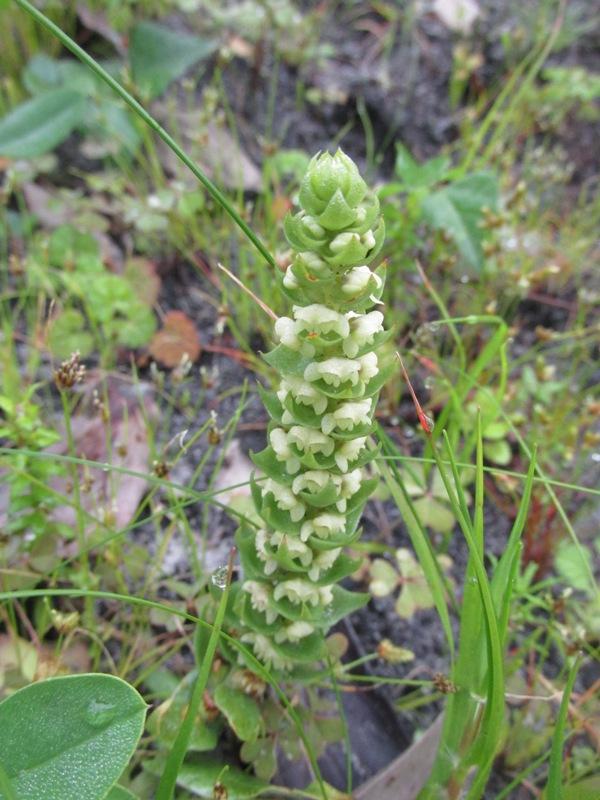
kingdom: Plantae
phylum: Tracheophyta
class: Liliopsida
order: Asparagales
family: Orchidaceae
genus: Satyrium
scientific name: Satyrium bicallosum
